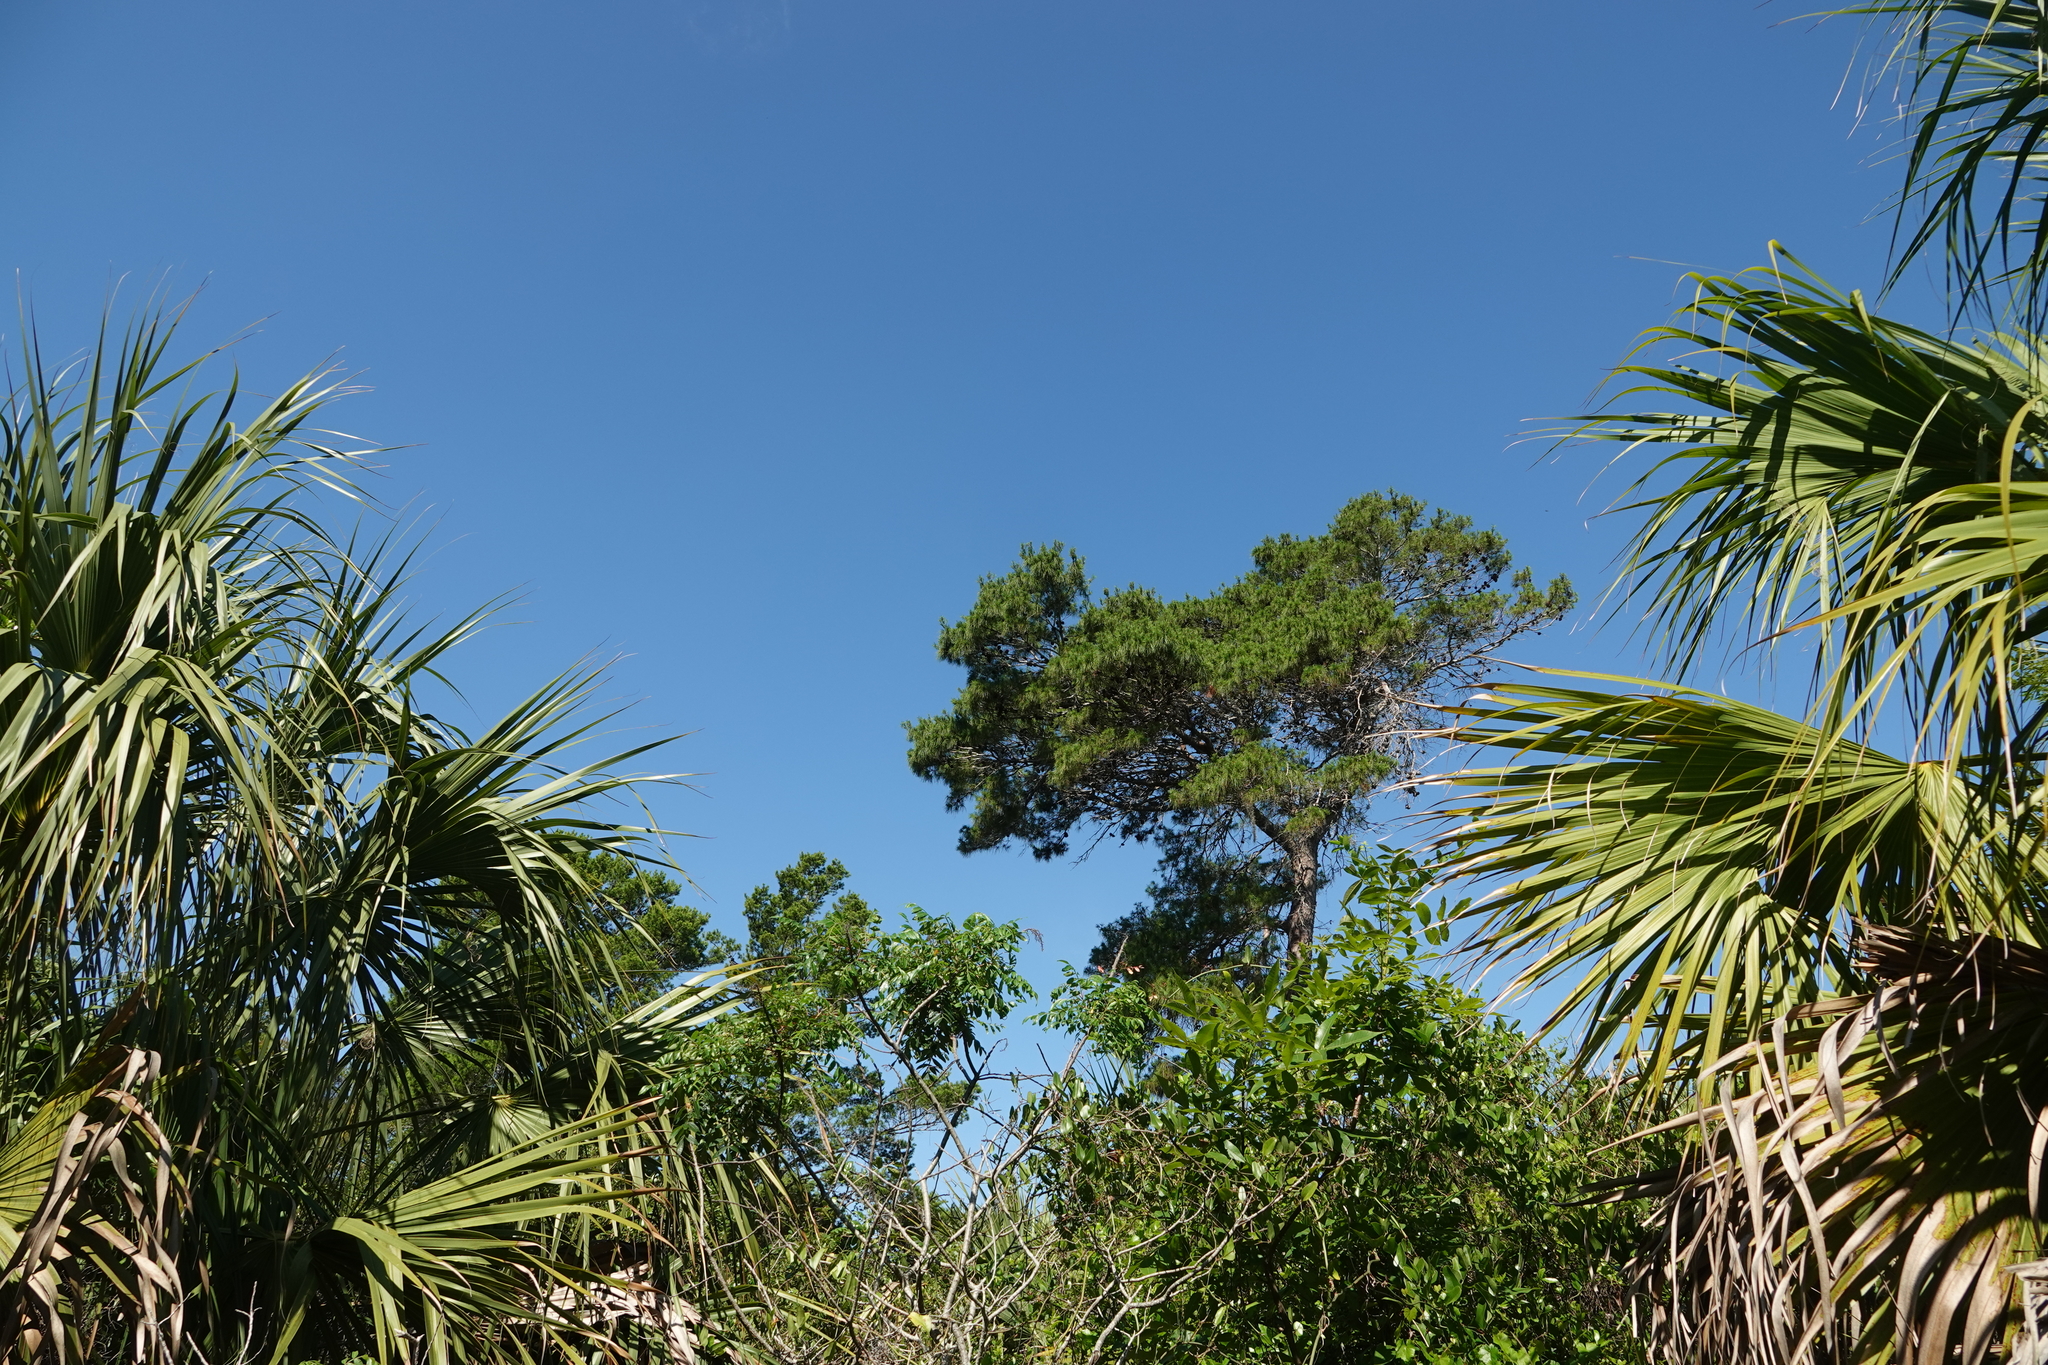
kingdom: Plantae
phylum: Tracheophyta
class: Pinopsida
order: Pinales
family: Pinaceae
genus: Pinus
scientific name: Pinus clausa
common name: Sand pine
